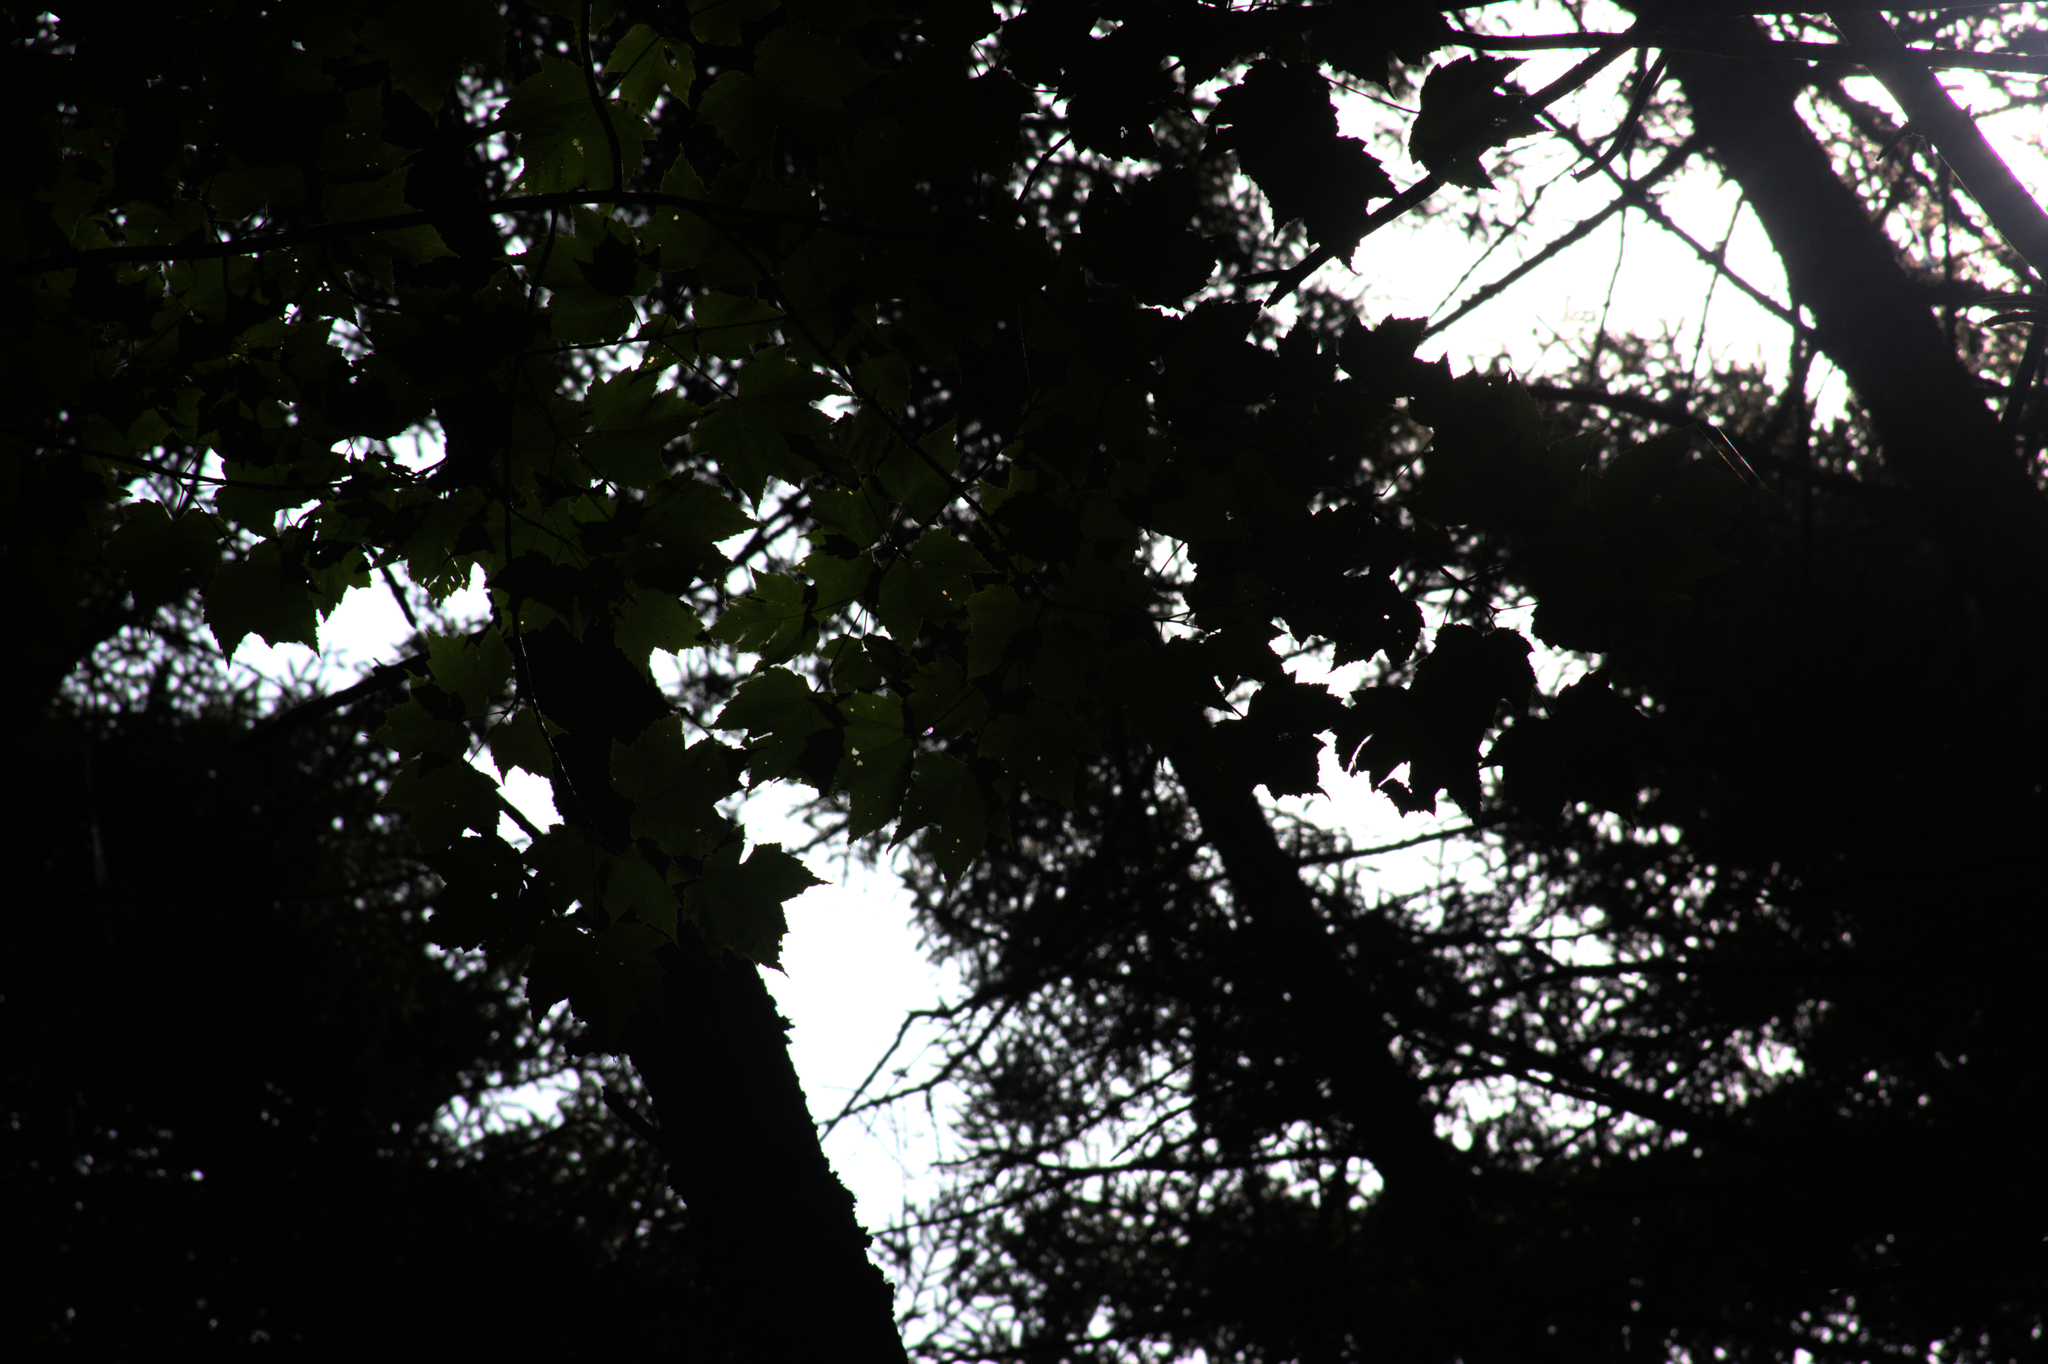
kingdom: Plantae
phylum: Tracheophyta
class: Magnoliopsida
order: Sapindales
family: Sapindaceae
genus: Acer
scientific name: Acer rubrum
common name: Red maple
